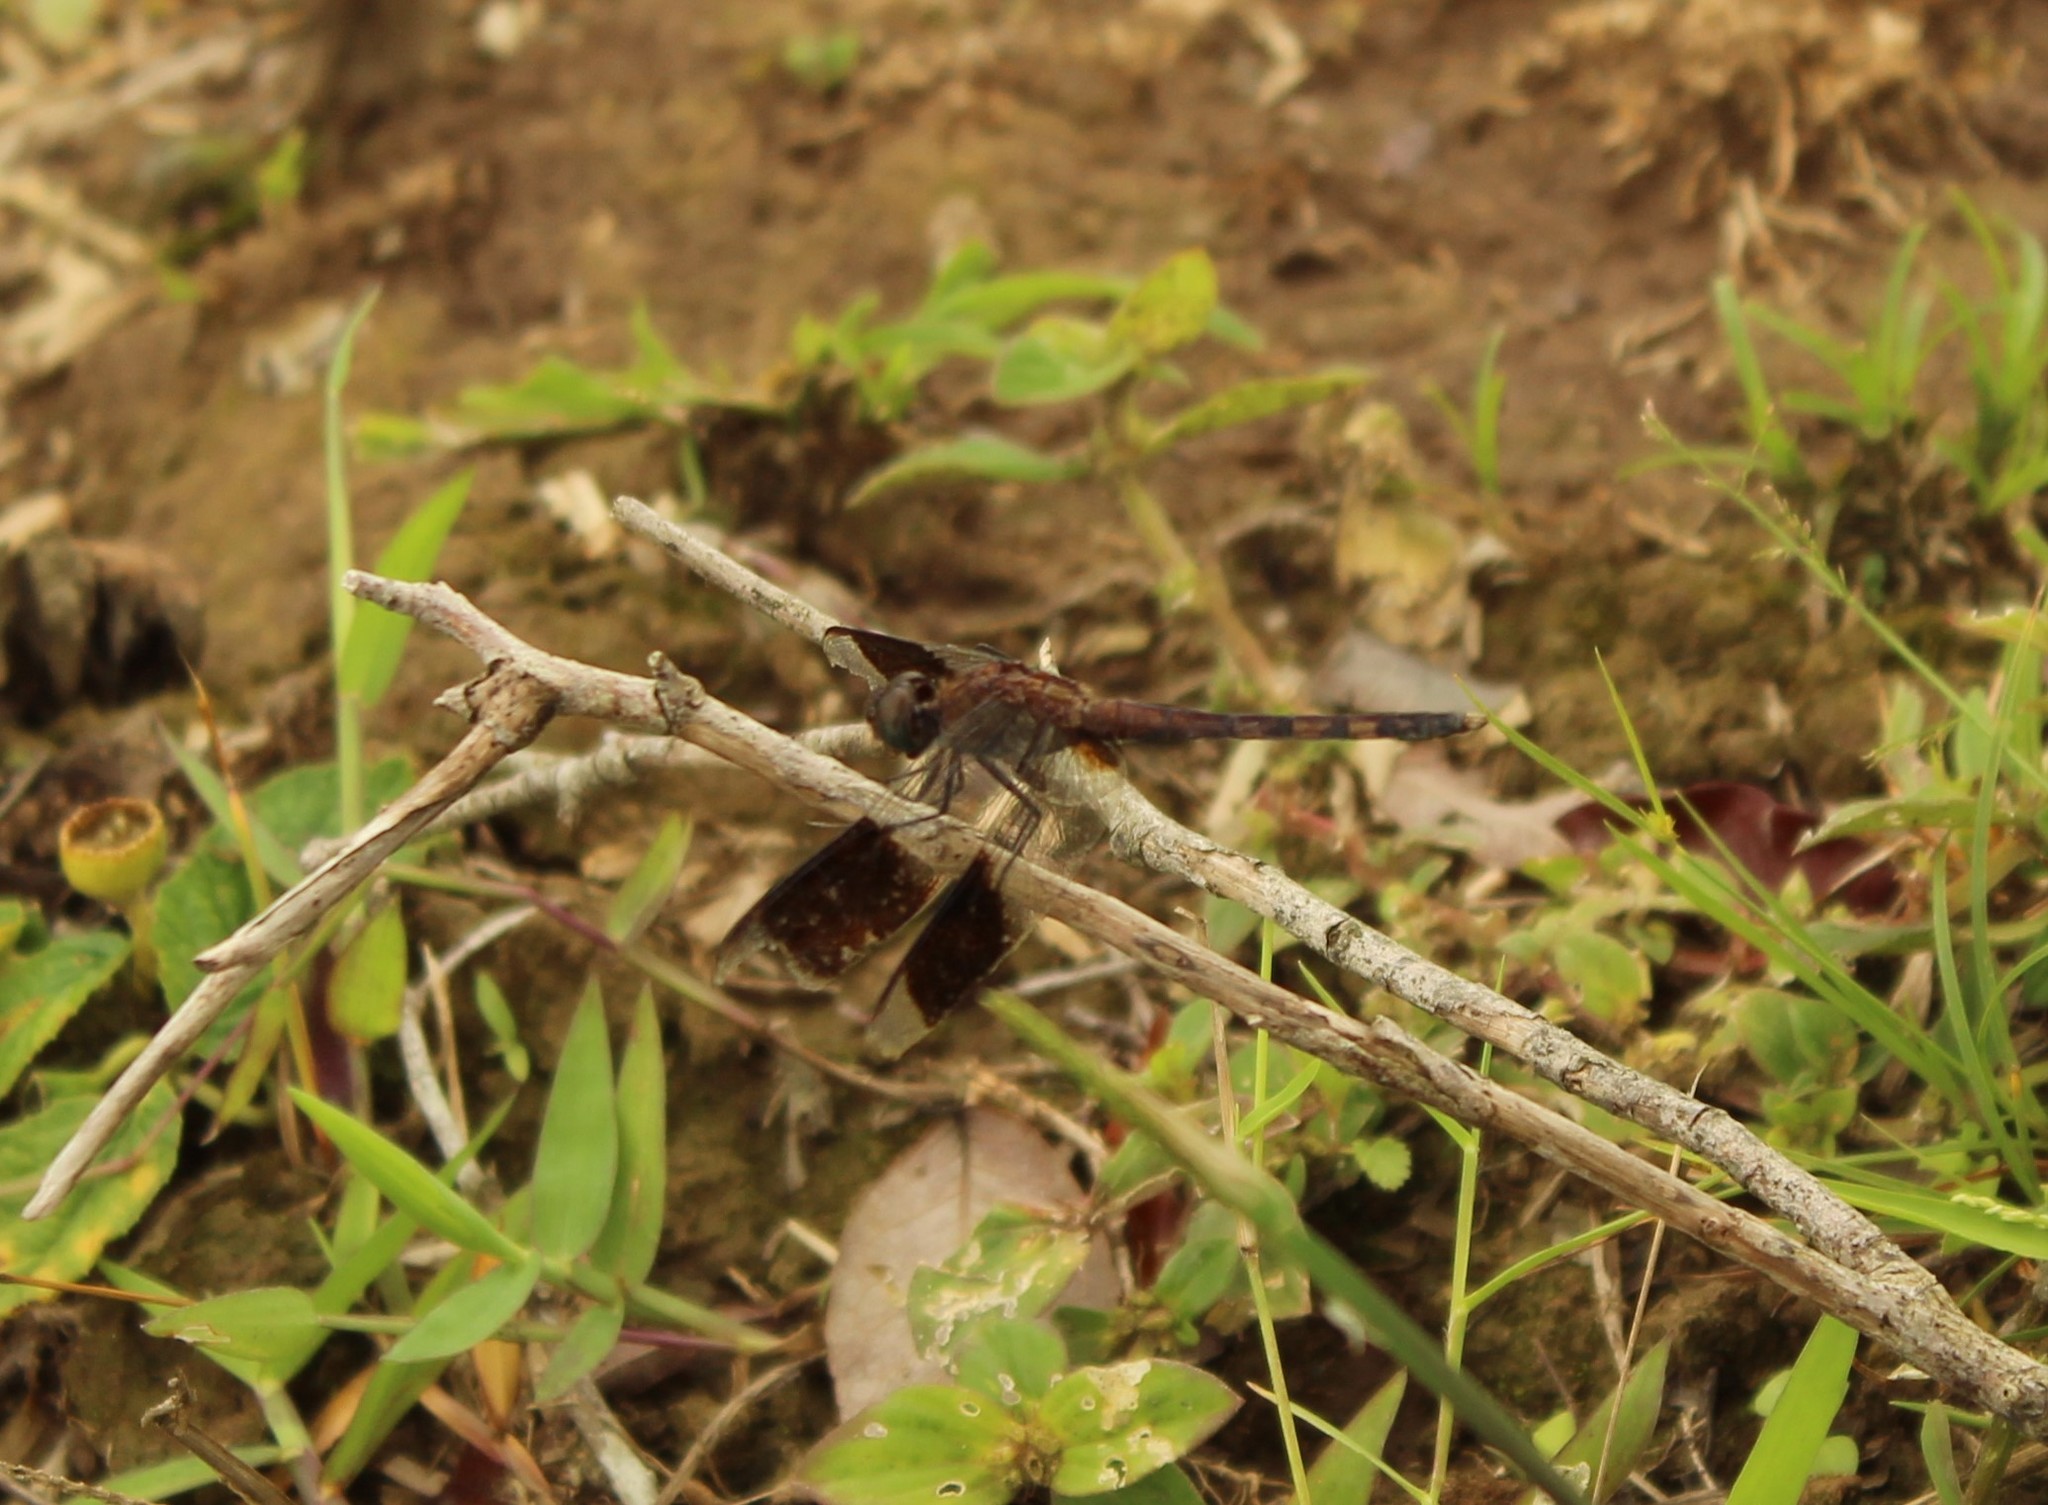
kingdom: Animalia
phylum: Arthropoda
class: Insecta
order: Odonata
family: Libellulidae
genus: Erythrodiplax
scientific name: Erythrodiplax umbrata
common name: Band-winged dragonlet
